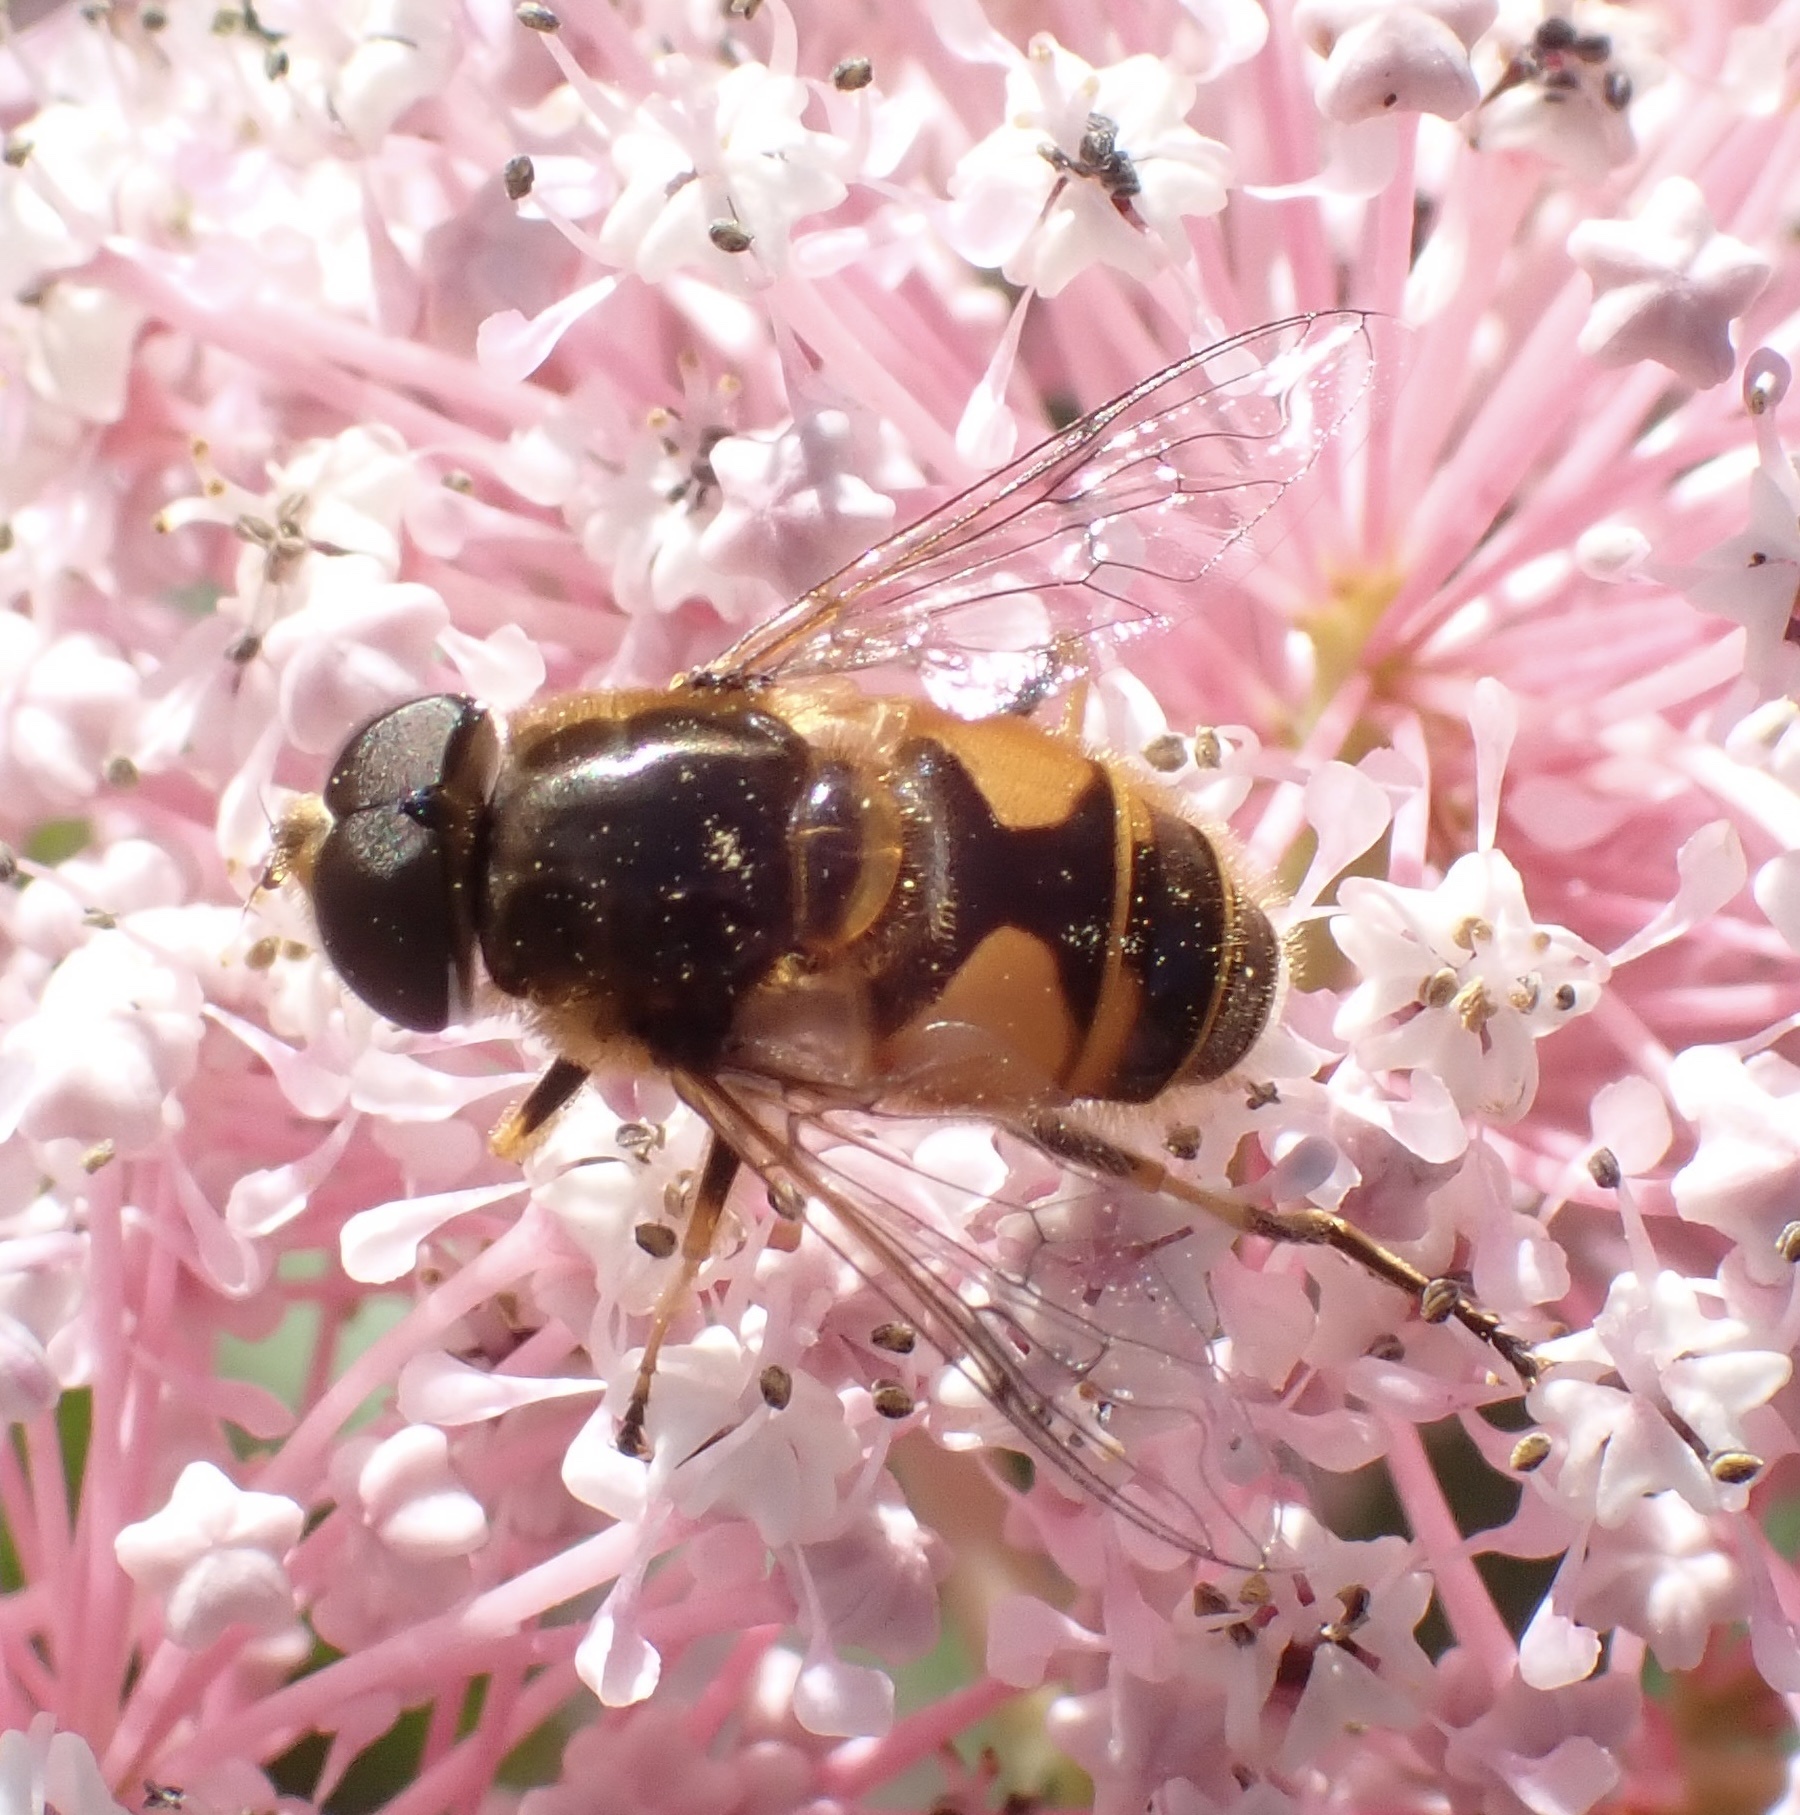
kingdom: Animalia
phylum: Arthropoda
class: Insecta
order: Diptera
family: Syrphidae
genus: Cheilosia
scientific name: Cheilosia morio
